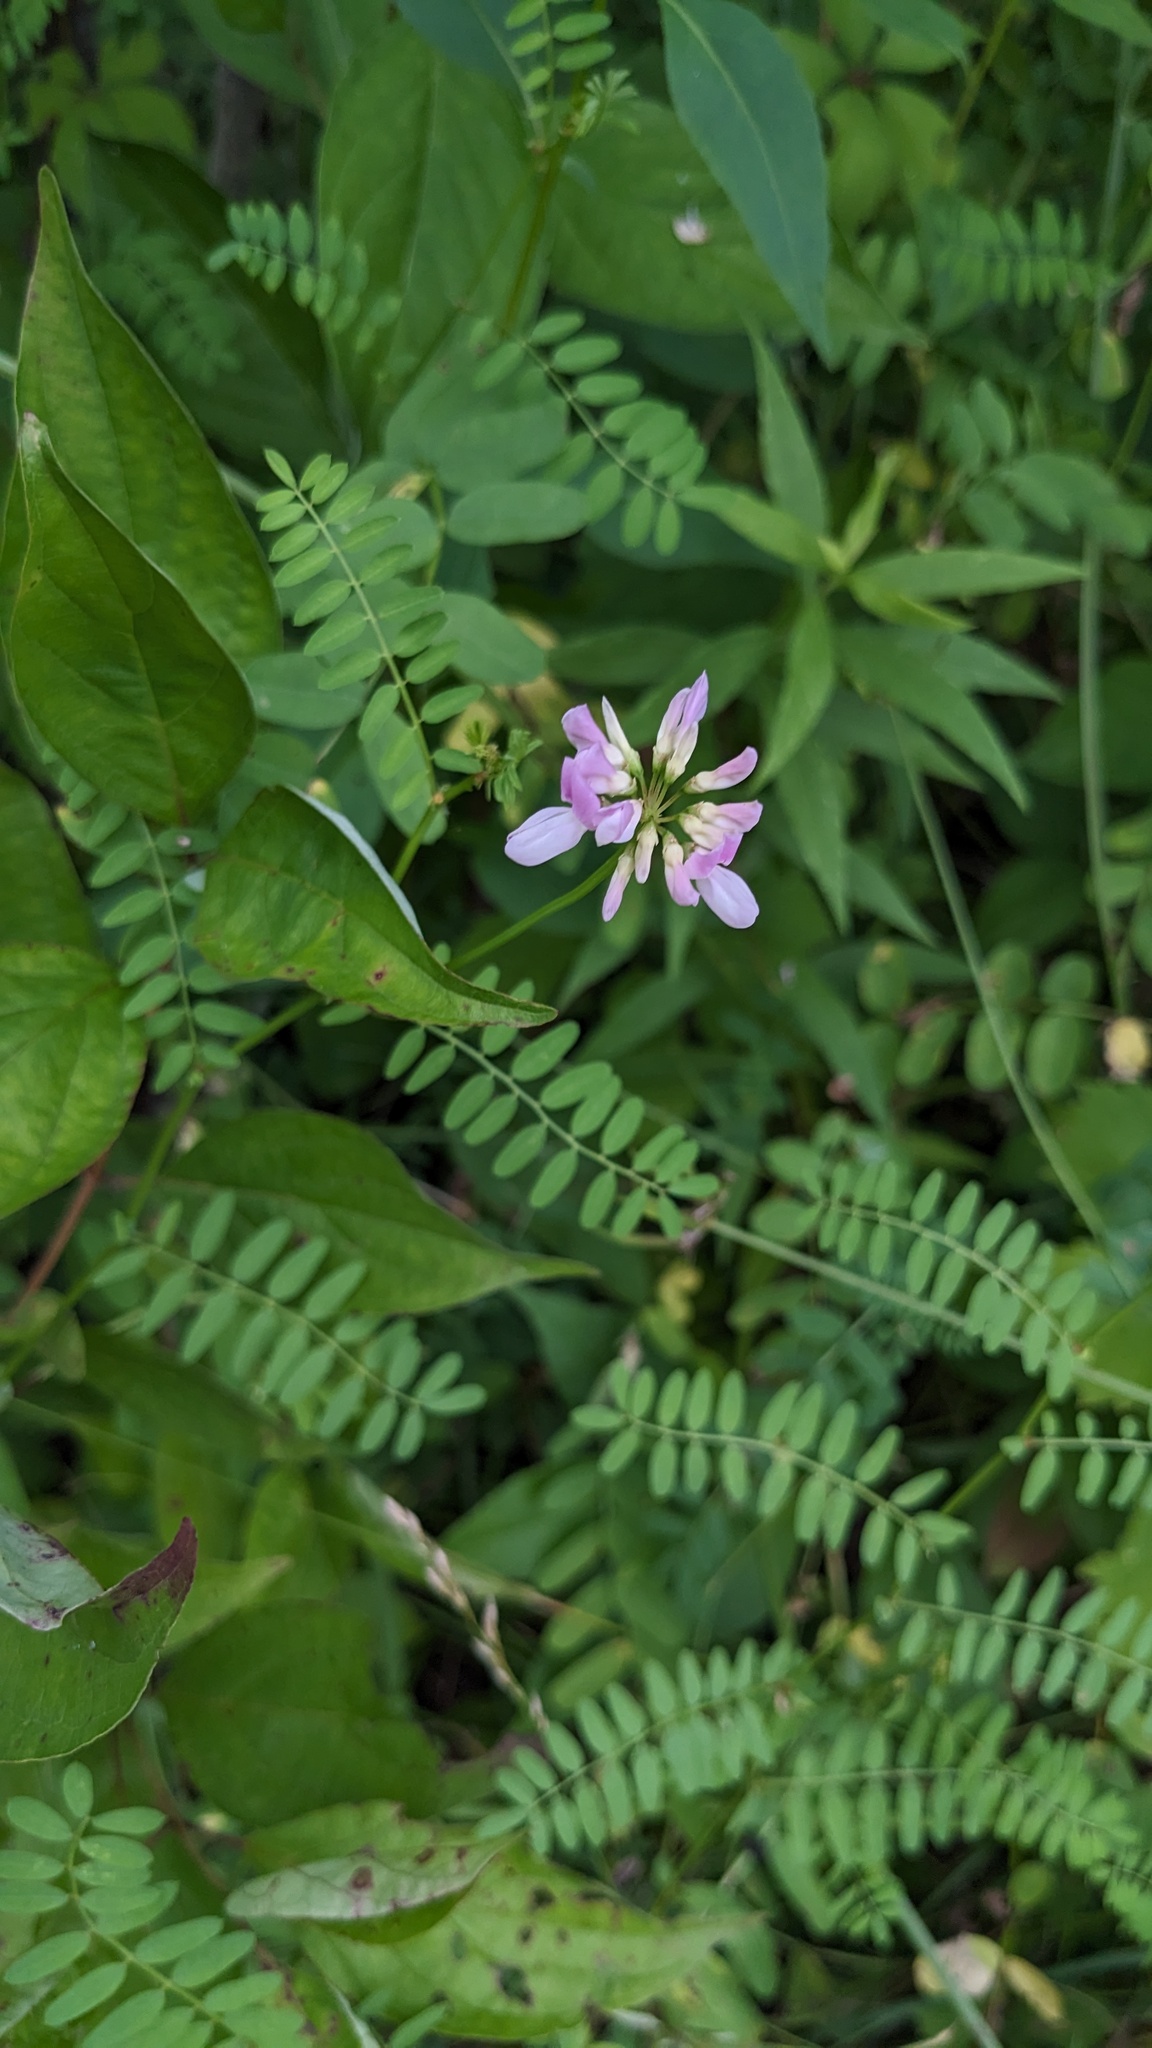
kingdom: Plantae
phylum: Tracheophyta
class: Magnoliopsida
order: Fabales
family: Fabaceae
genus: Coronilla
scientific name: Coronilla varia
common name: Crownvetch
